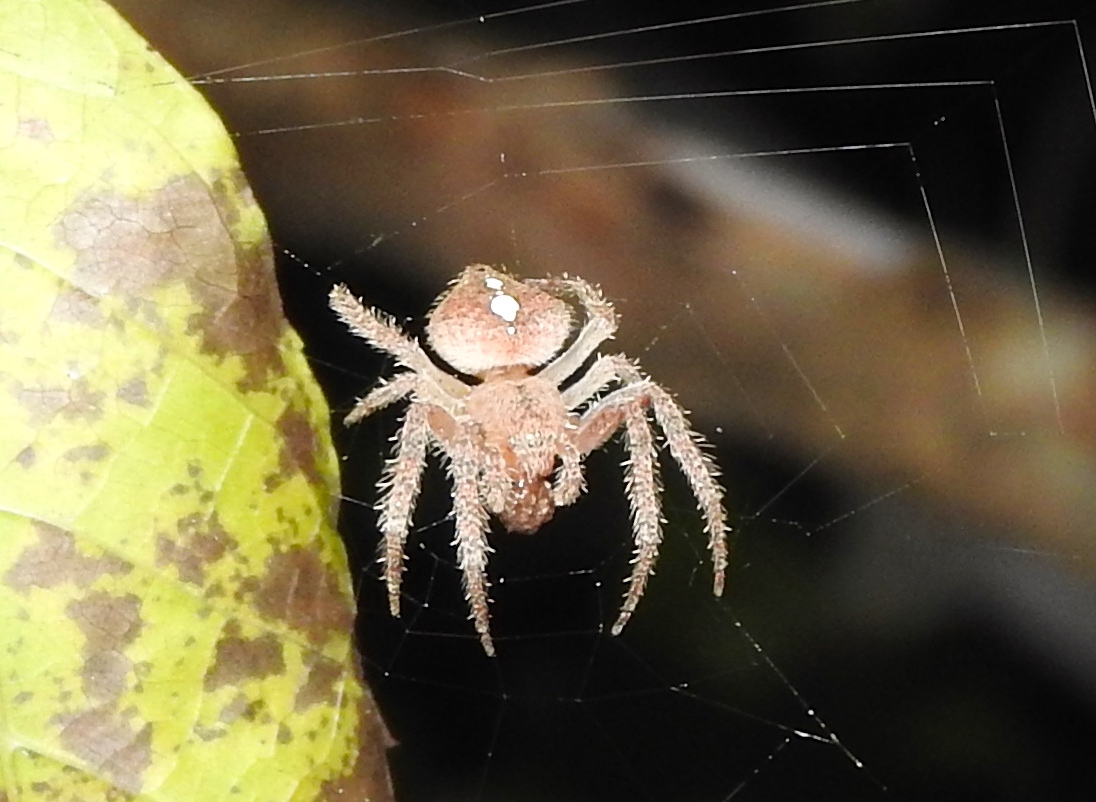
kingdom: Animalia
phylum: Arthropoda
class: Arachnida
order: Araneae
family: Araneidae
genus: Eriophora
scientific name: Eriophora
